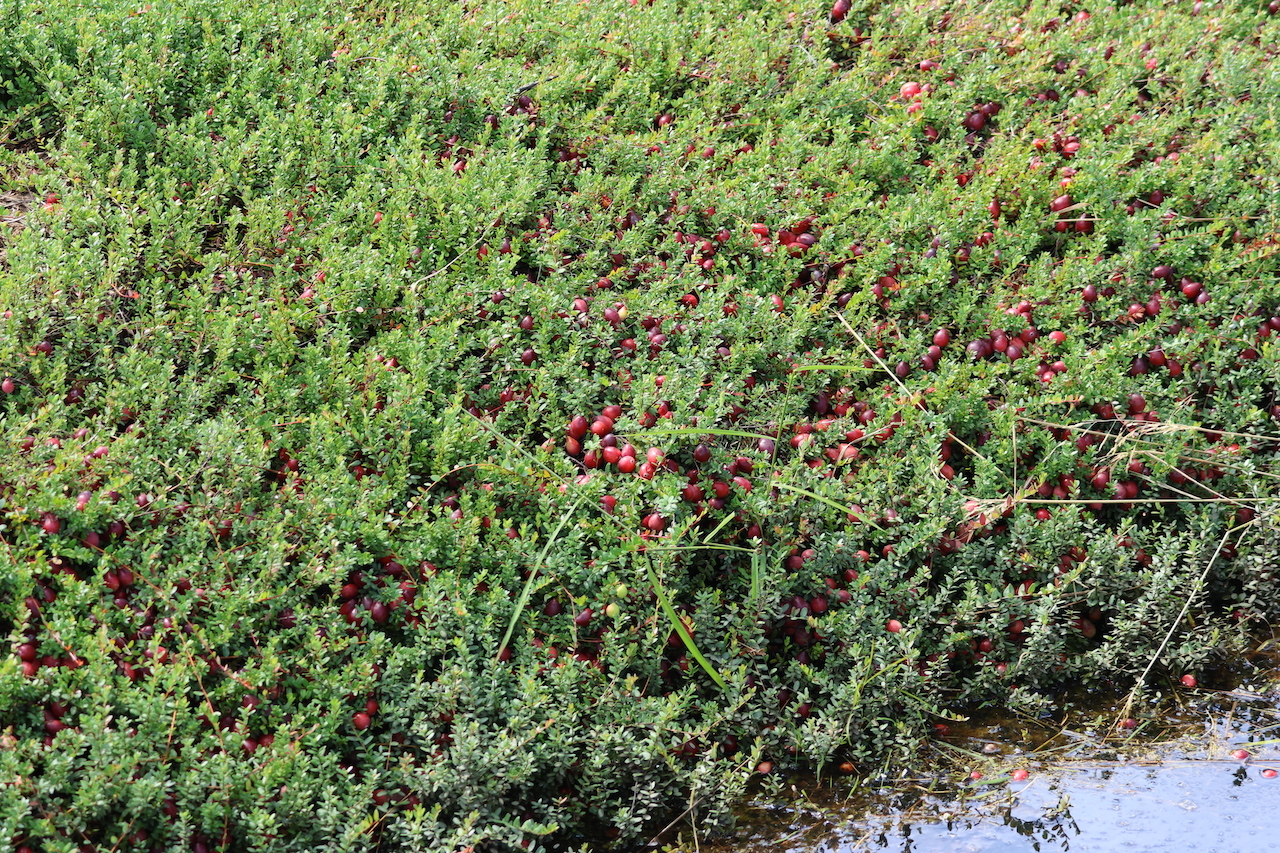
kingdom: Plantae
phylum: Tracheophyta
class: Magnoliopsida
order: Ericales
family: Ericaceae
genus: Vaccinium
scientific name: Vaccinium macrocarpon
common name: American cranberry
